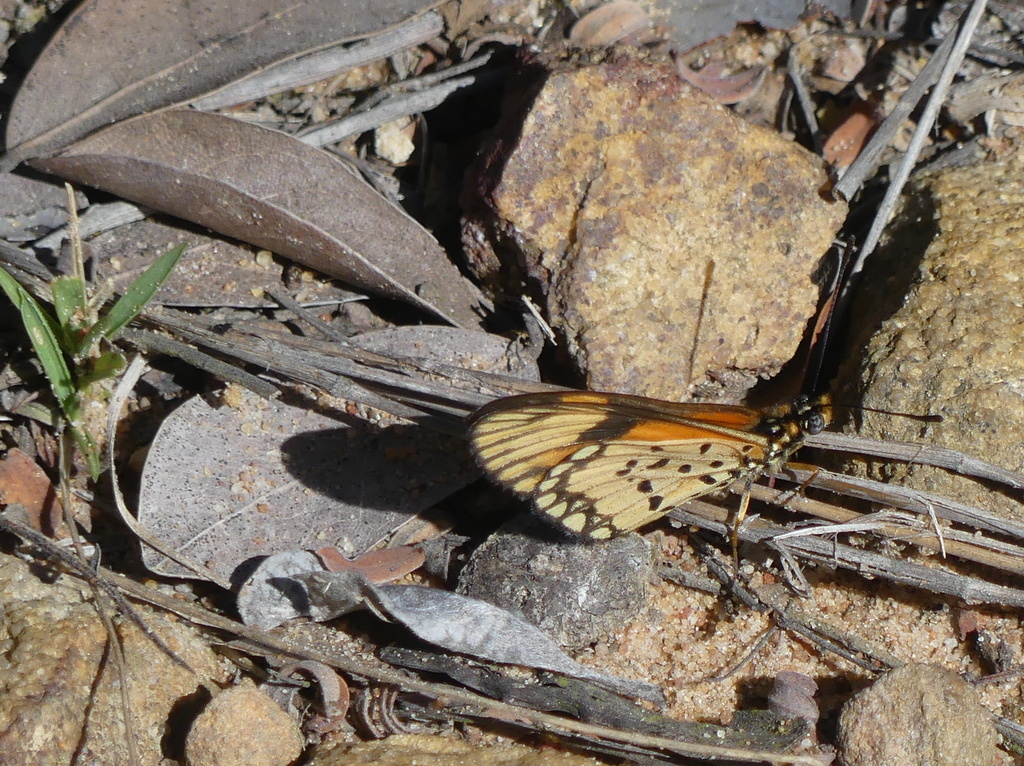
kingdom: Animalia
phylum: Arthropoda
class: Insecta
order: Lepidoptera
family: Nymphalidae
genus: Acraea
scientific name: Acraea Telchinia serena
